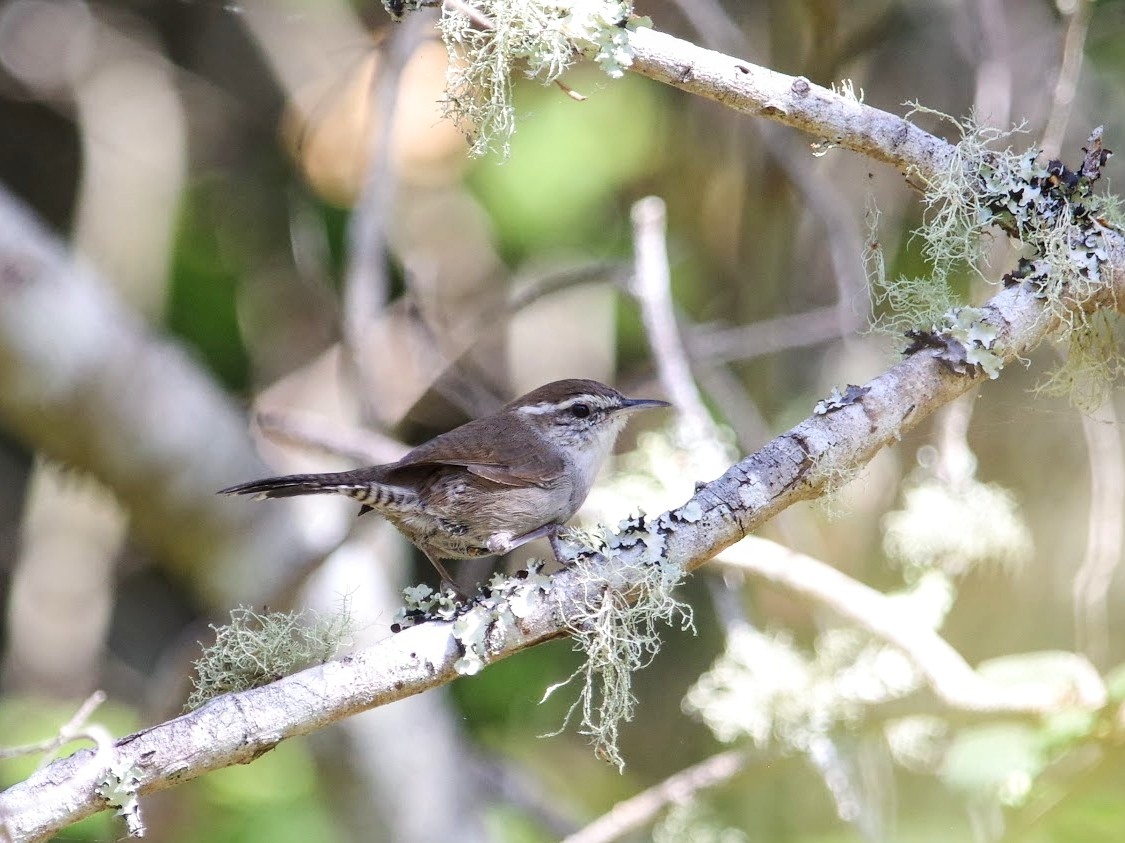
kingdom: Animalia
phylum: Chordata
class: Aves
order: Passeriformes
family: Troglodytidae
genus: Thryomanes
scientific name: Thryomanes bewickii
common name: Bewick's wren
